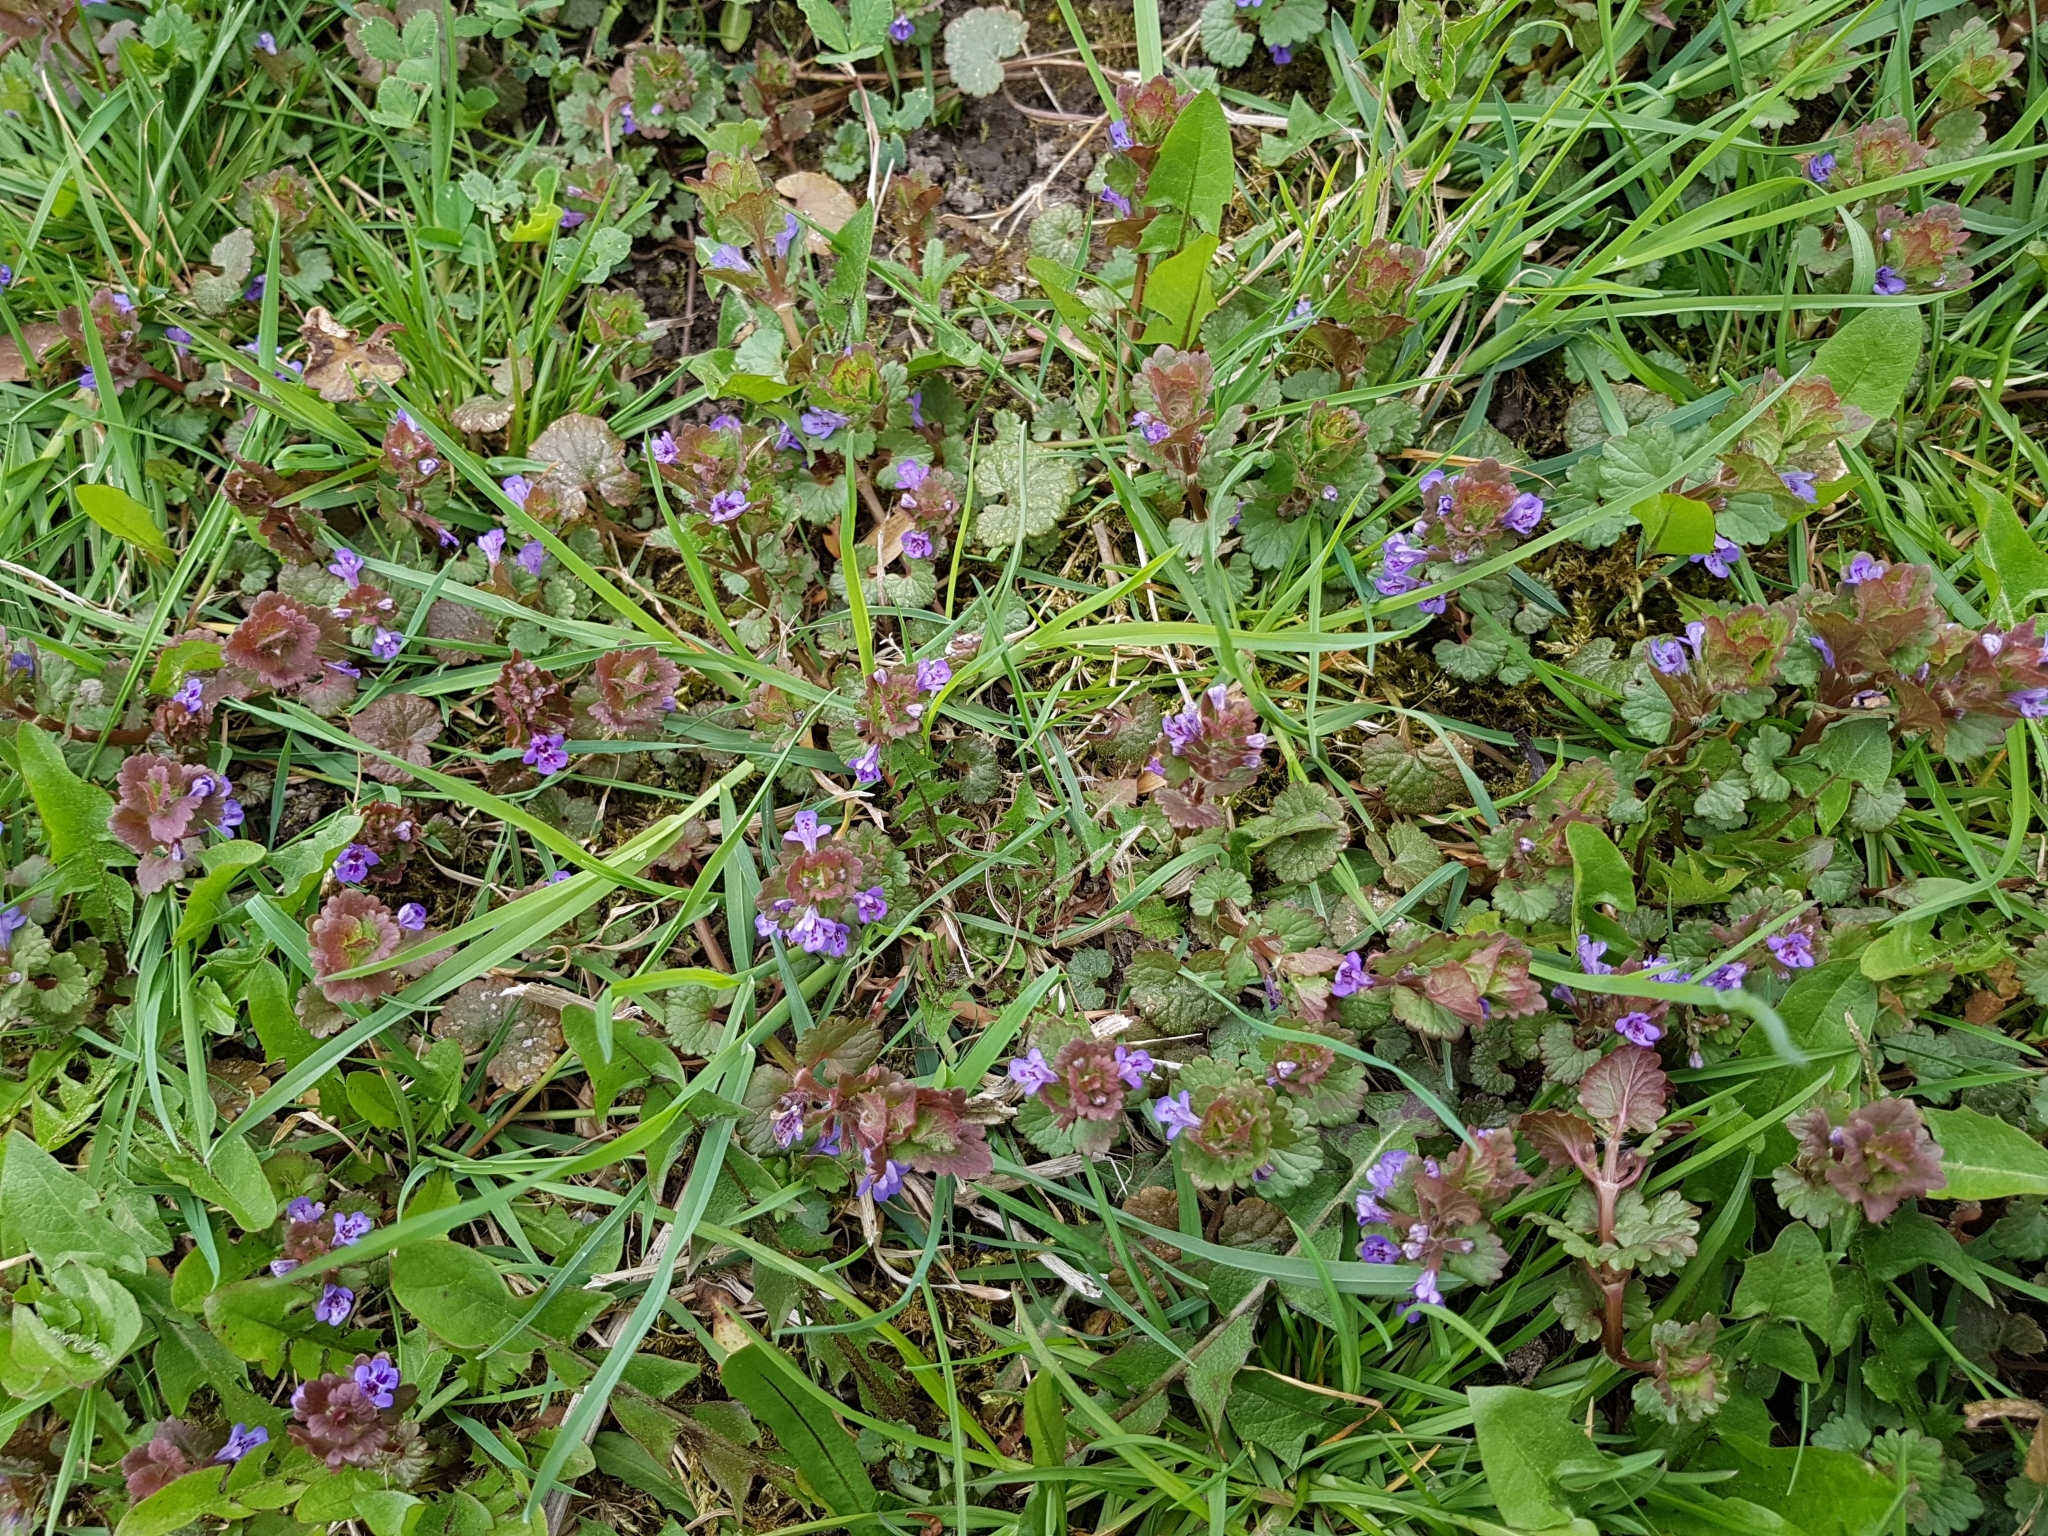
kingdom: Plantae
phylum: Tracheophyta
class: Magnoliopsida
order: Lamiales
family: Lamiaceae
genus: Glechoma
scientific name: Glechoma hederacea
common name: Ground ivy
